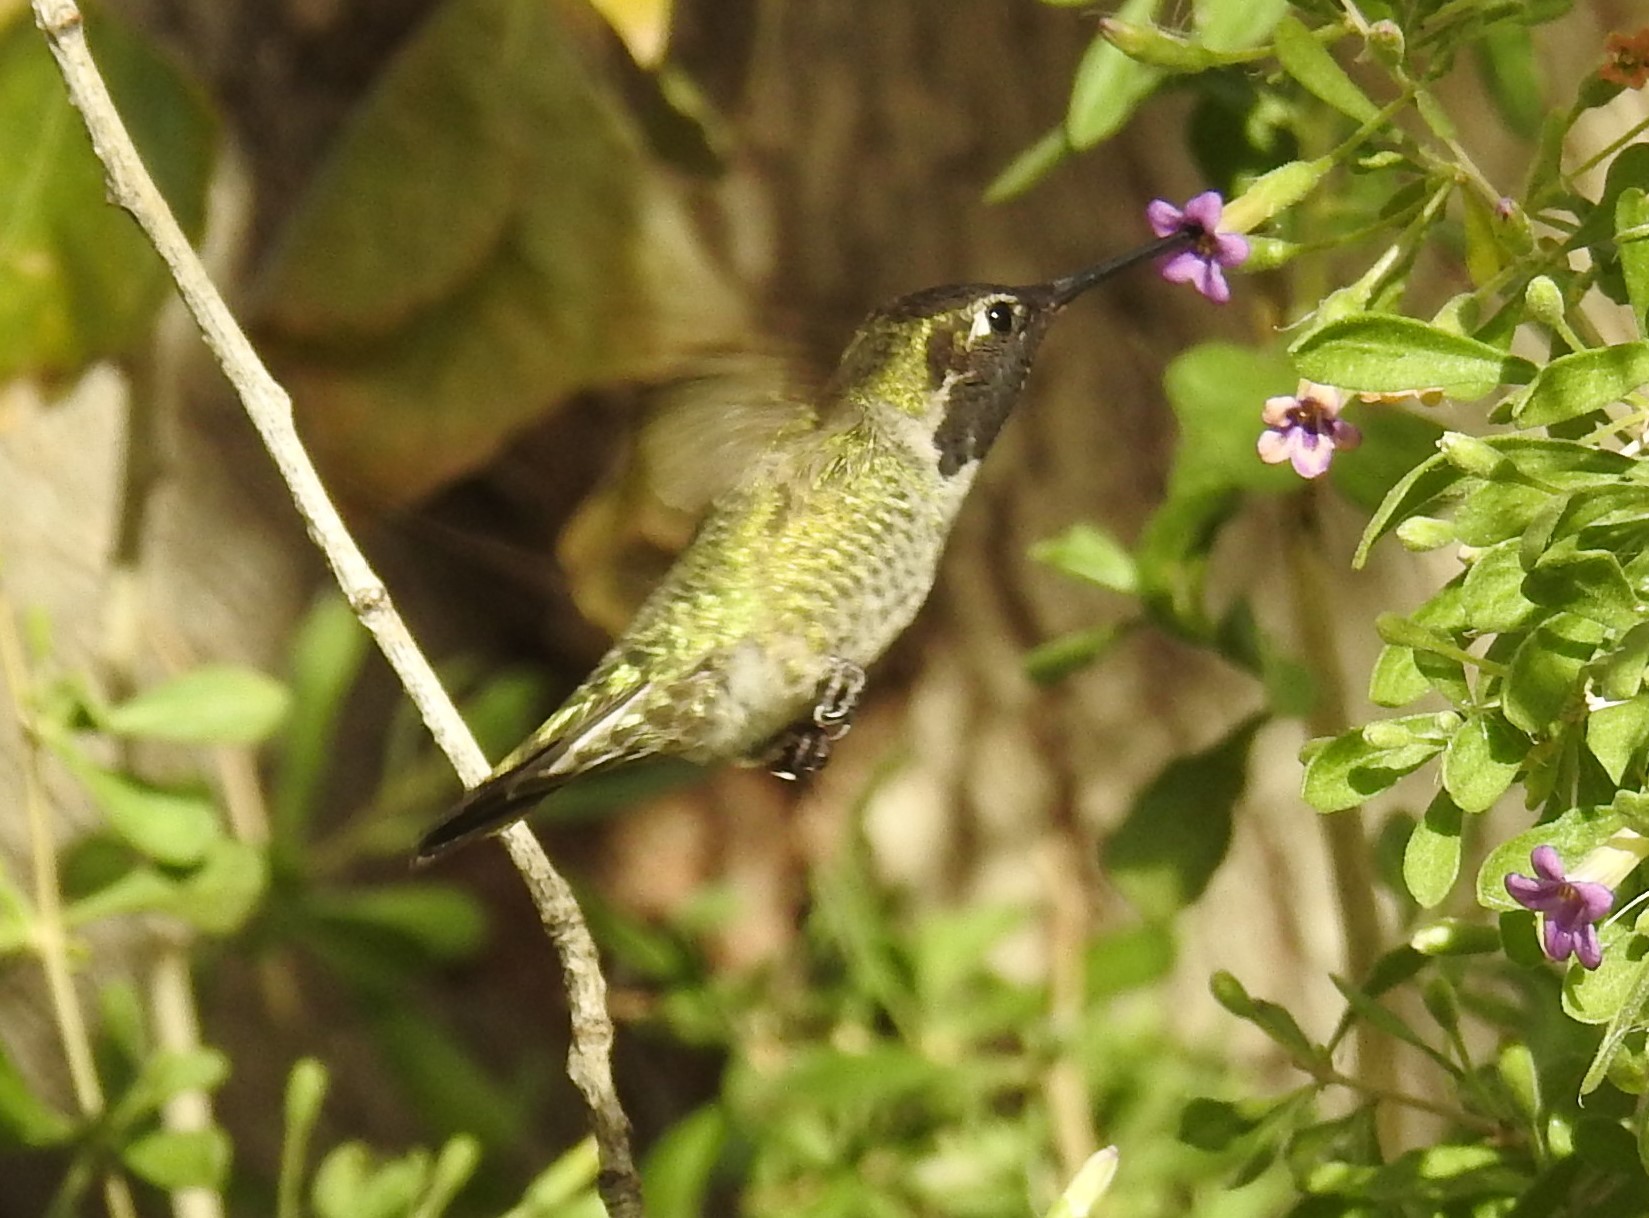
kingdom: Animalia
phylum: Chordata
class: Aves
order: Apodiformes
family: Trochilidae
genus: Calypte
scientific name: Calypte anna
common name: Anna's hummingbird
